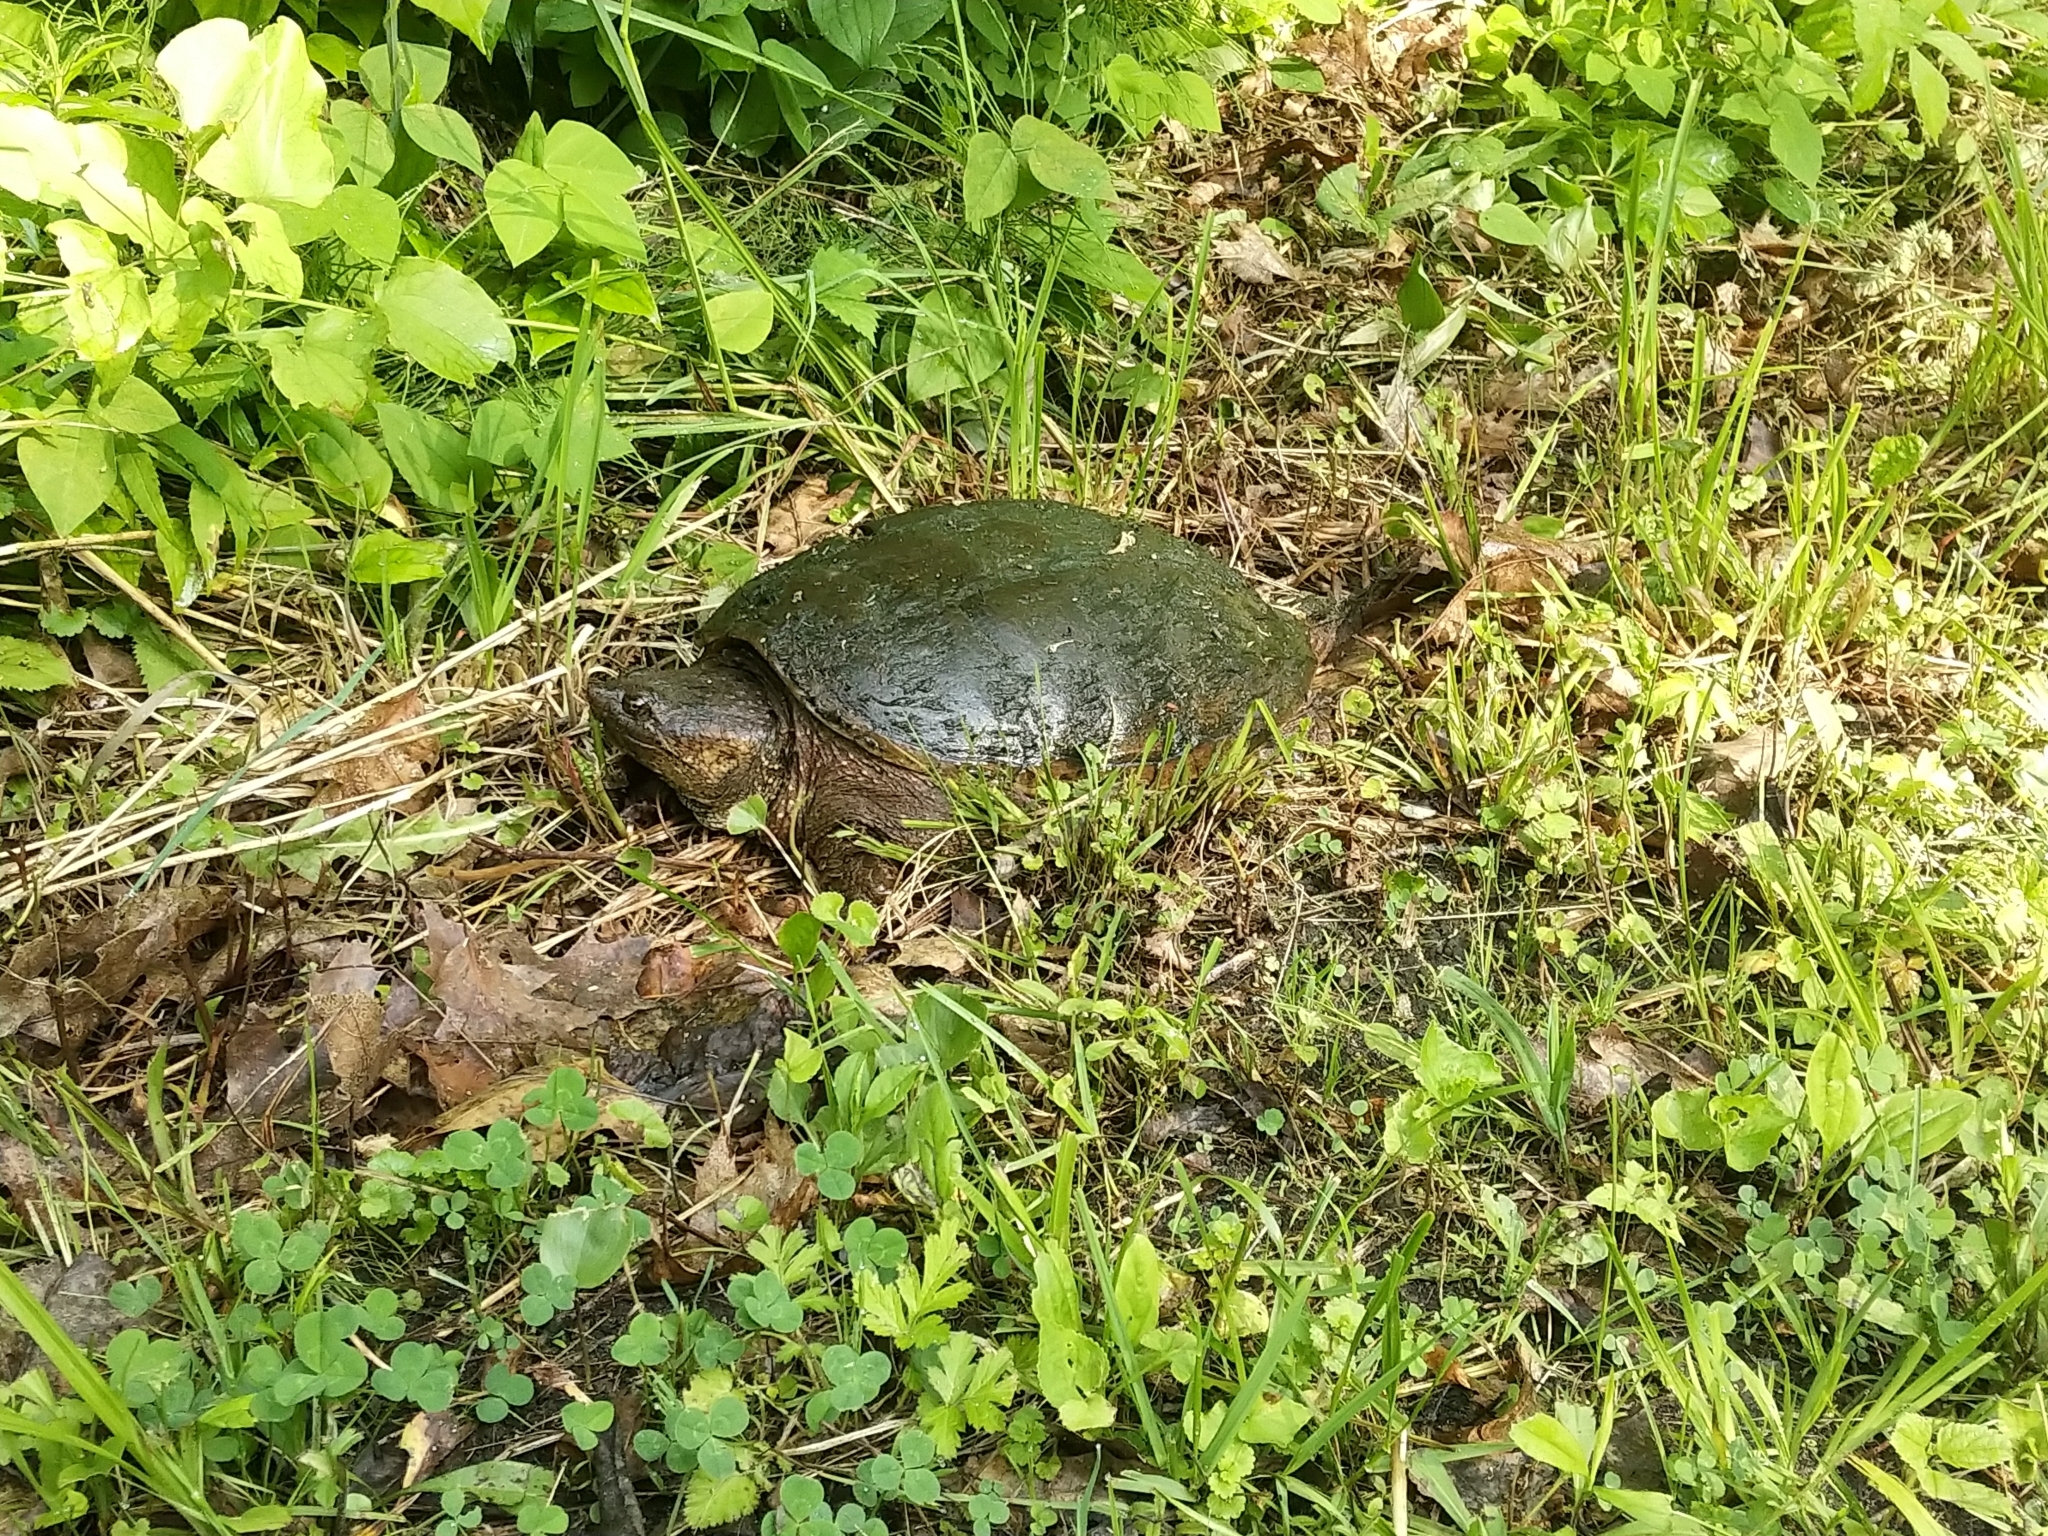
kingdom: Animalia
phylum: Chordata
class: Testudines
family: Chelydridae
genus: Chelydra
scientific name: Chelydra serpentina
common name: Common snapping turtle
